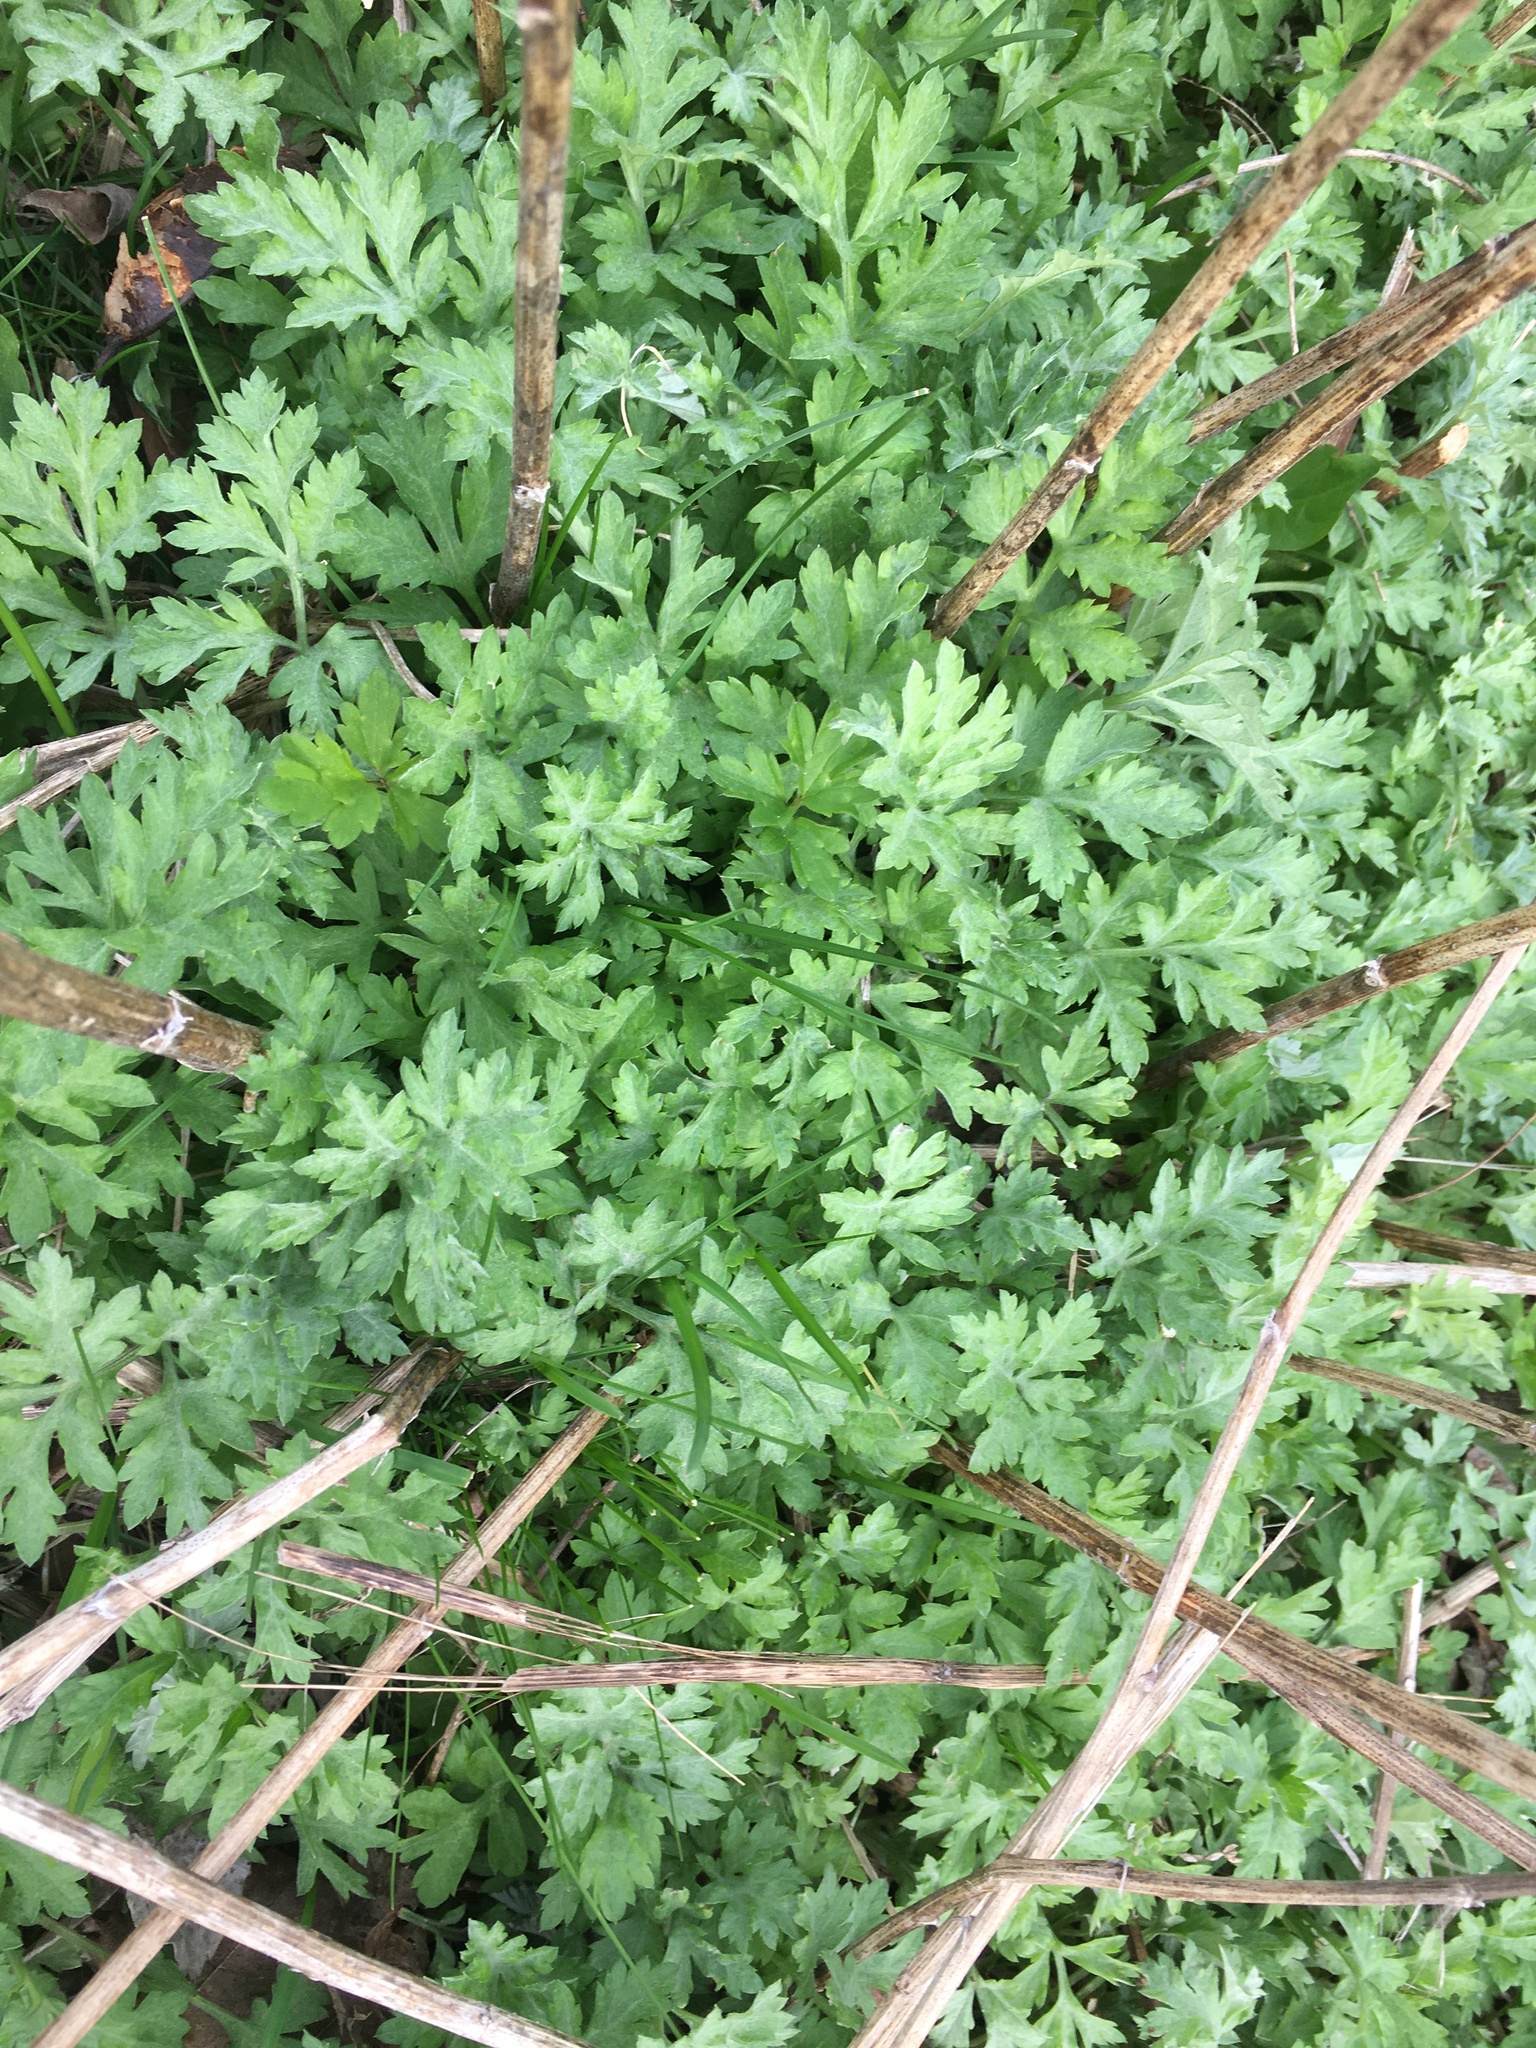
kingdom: Plantae
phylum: Tracheophyta
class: Magnoliopsida
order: Asterales
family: Asteraceae
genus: Artemisia
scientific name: Artemisia vulgaris
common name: Mugwort
